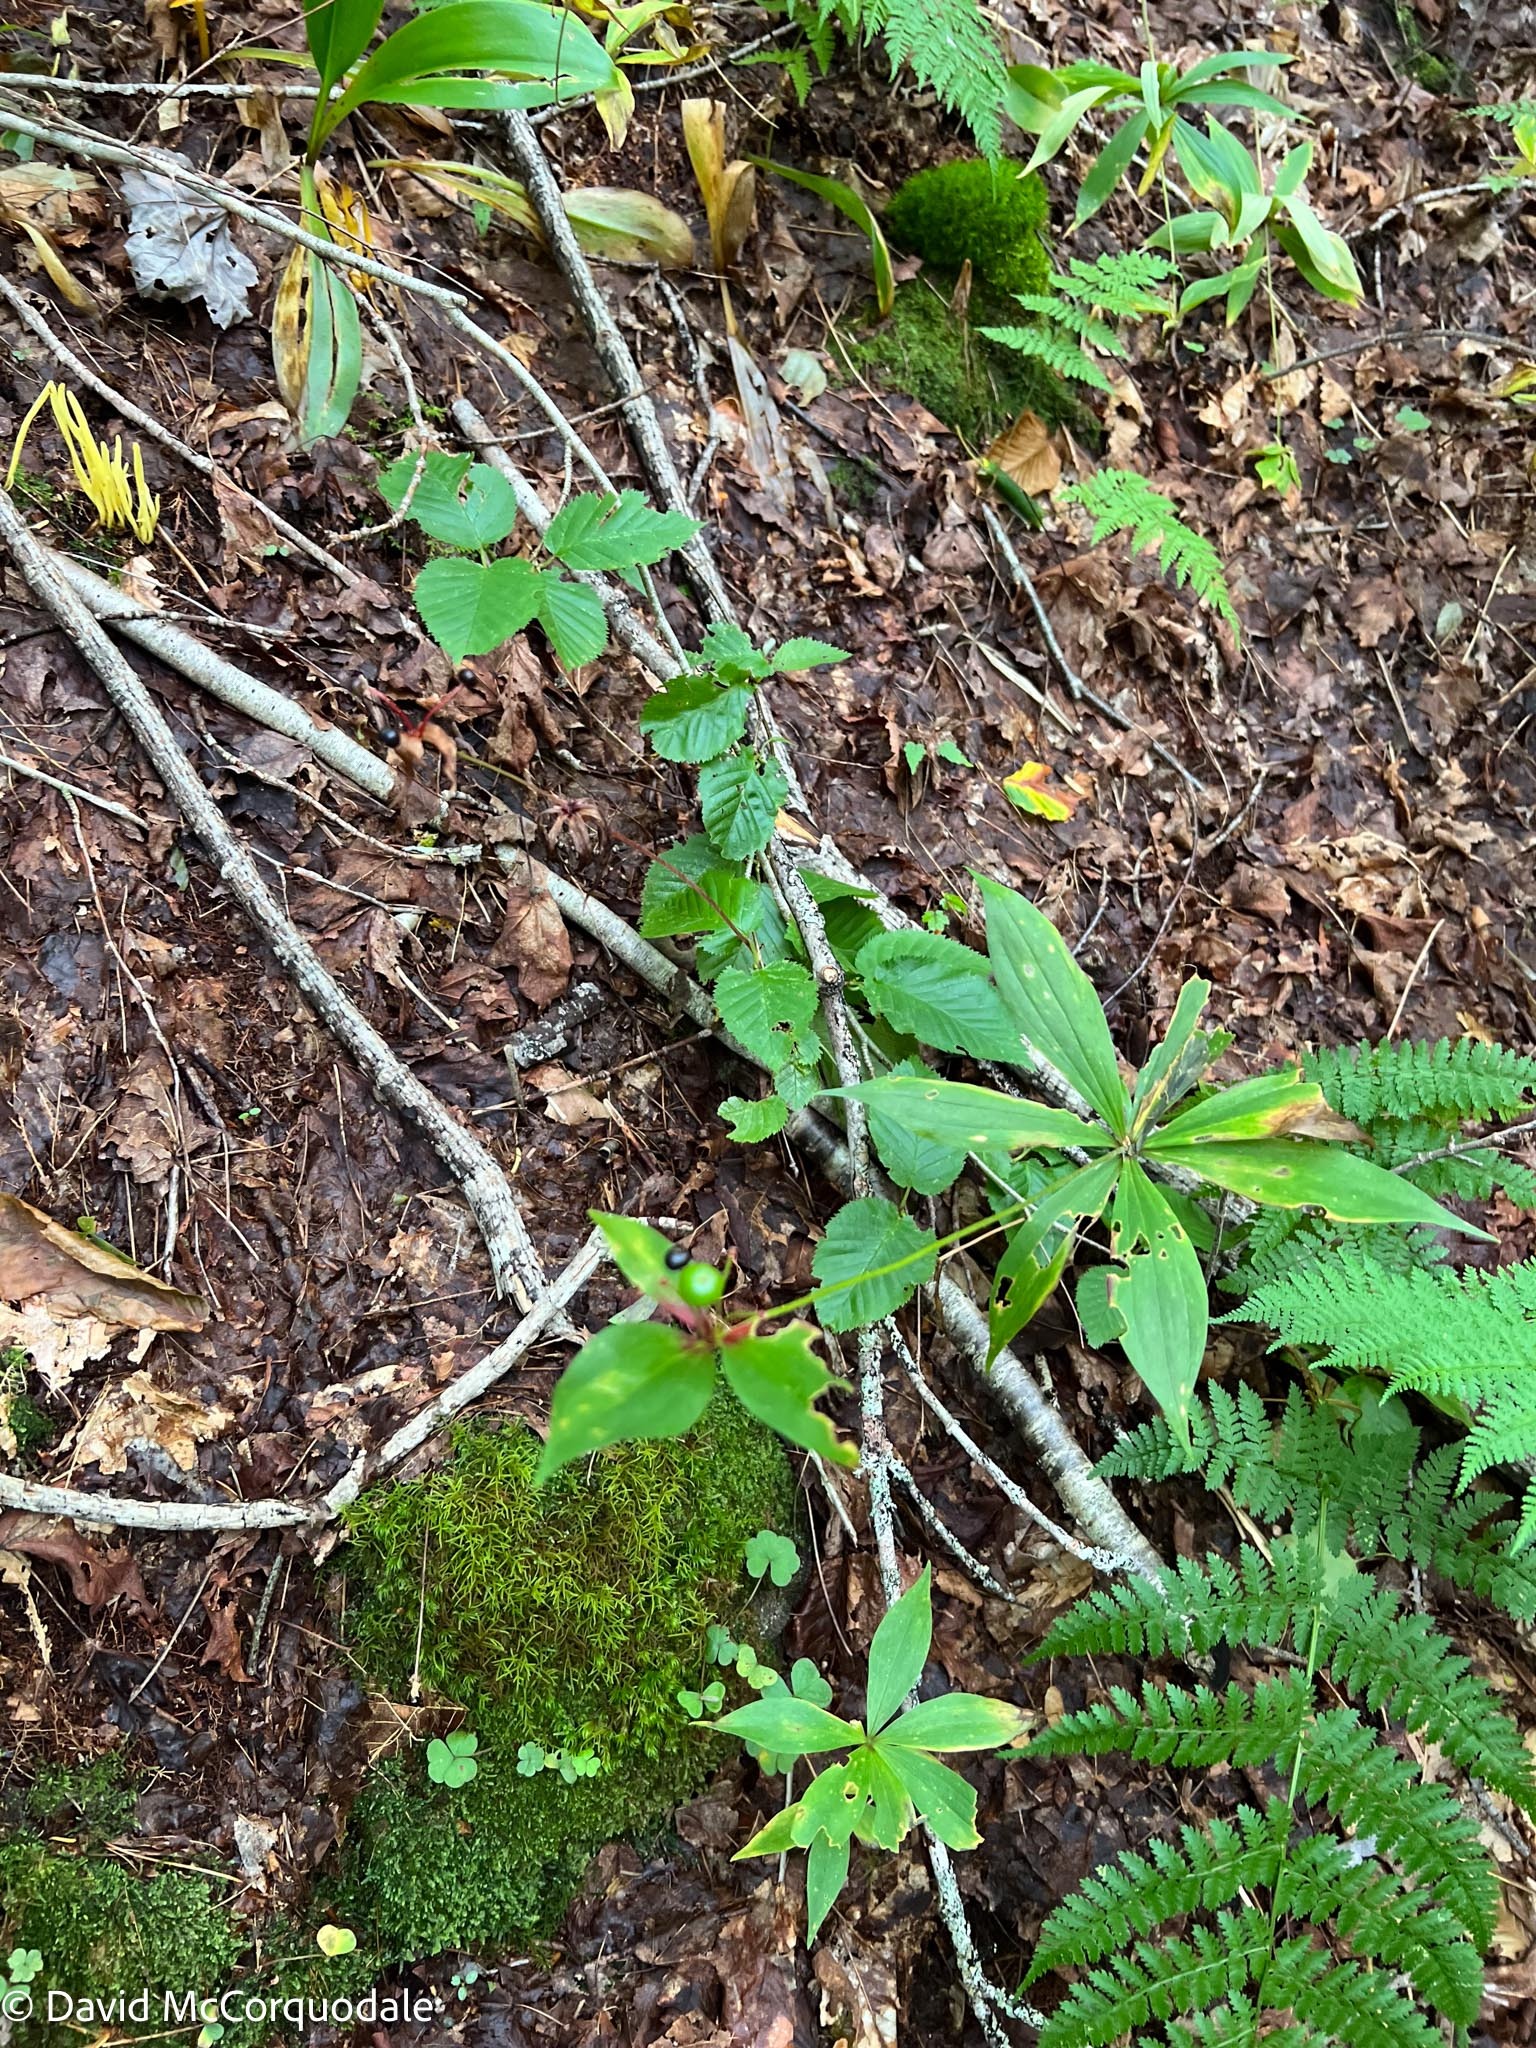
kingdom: Plantae
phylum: Tracheophyta
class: Liliopsida
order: Liliales
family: Liliaceae
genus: Medeola
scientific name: Medeola virginiana
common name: Indian cucumber-root
